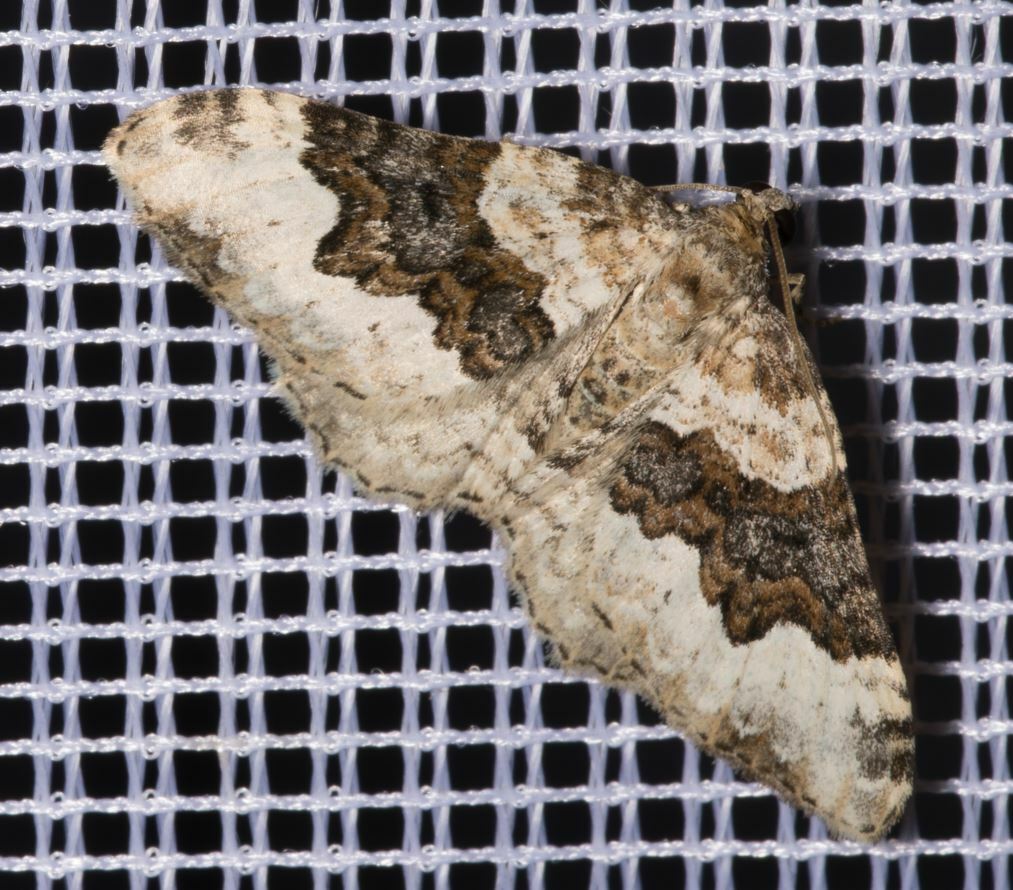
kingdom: Animalia
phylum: Arthropoda
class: Insecta
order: Lepidoptera
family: Geometridae
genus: Epirrhoe
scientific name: Epirrhoe galiata
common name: Galium carpet
